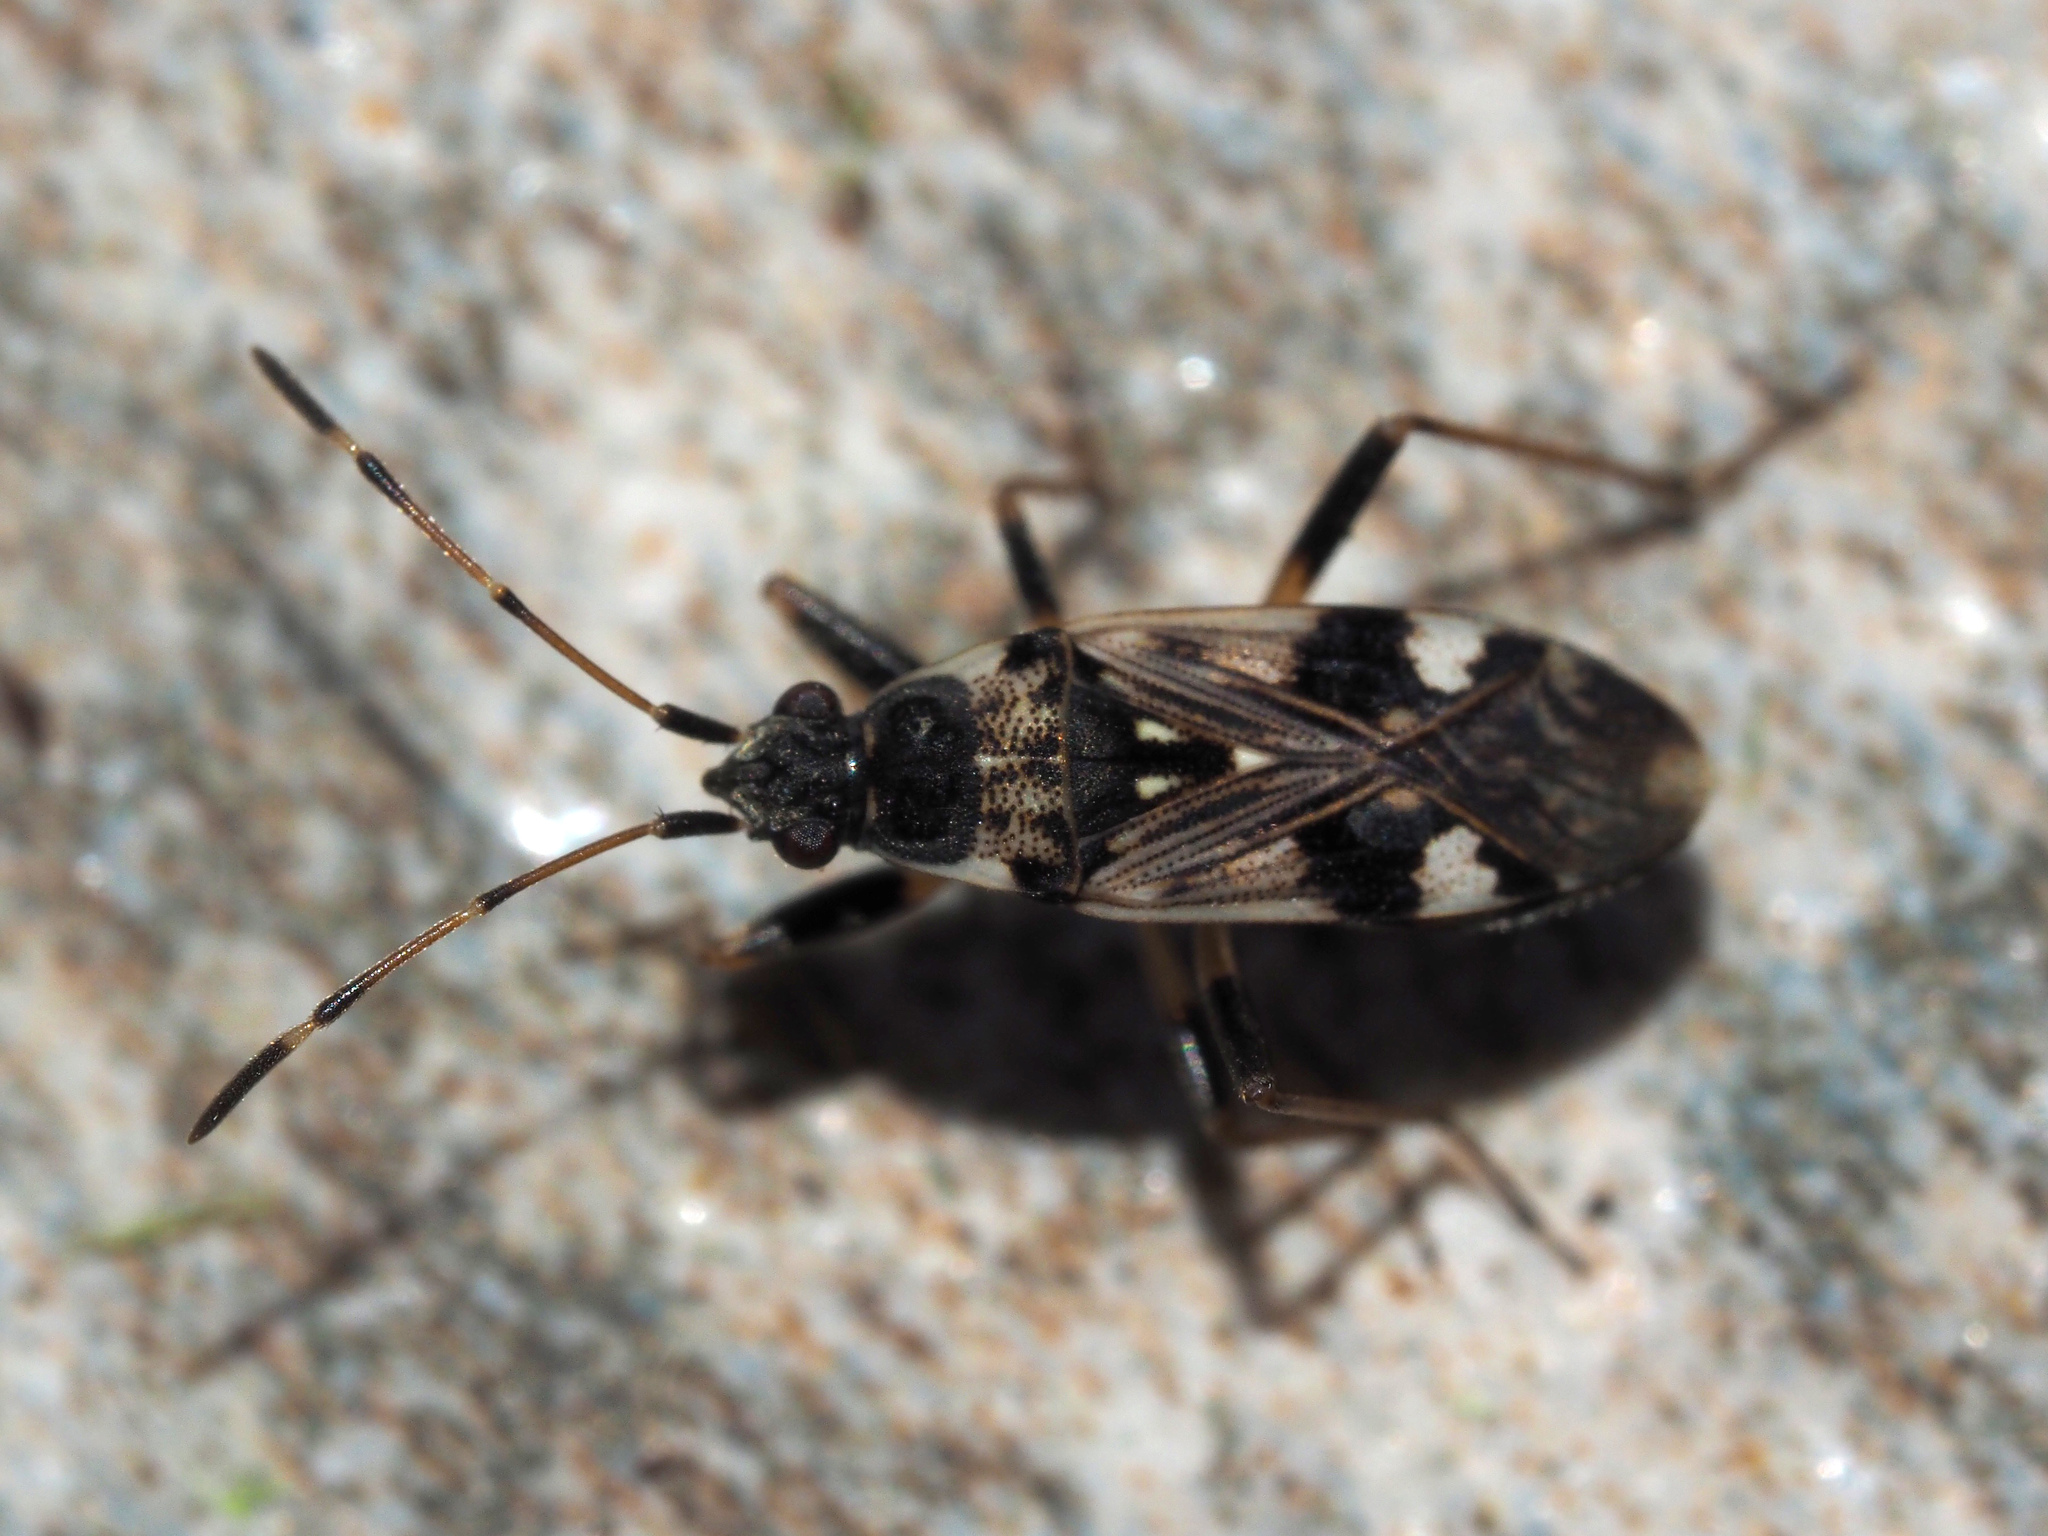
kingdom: Animalia
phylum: Arthropoda
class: Insecta
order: Hemiptera
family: Rhyparochromidae
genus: Beosus
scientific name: Beosus maritimus
